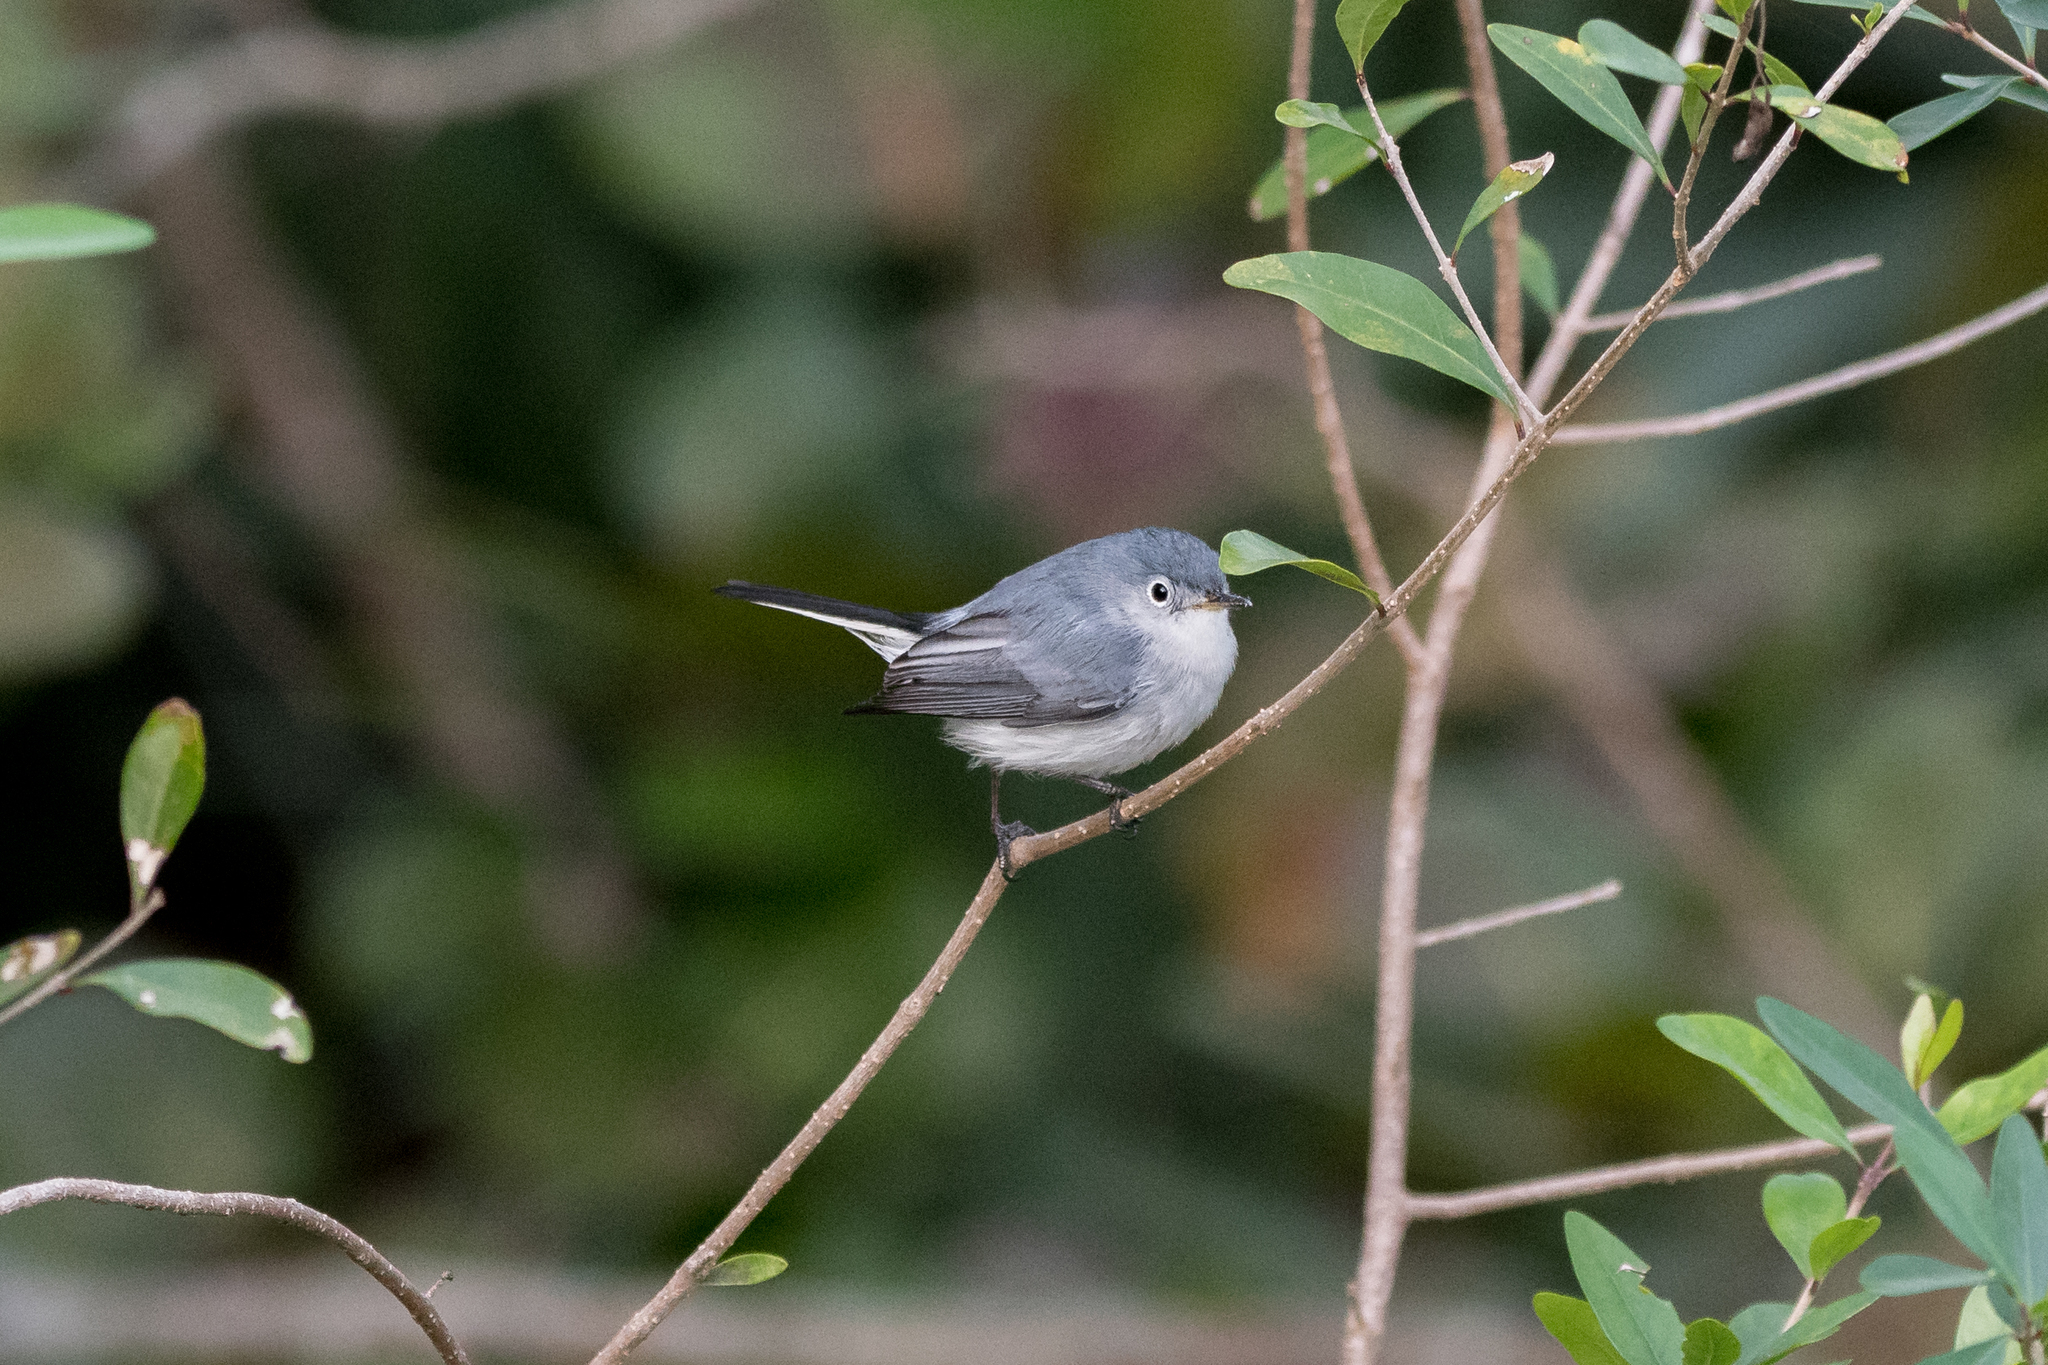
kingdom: Animalia
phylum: Chordata
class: Aves
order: Passeriformes
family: Polioptilidae
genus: Polioptila
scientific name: Polioptila caerulea
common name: Blue-gray gnatcatcher
